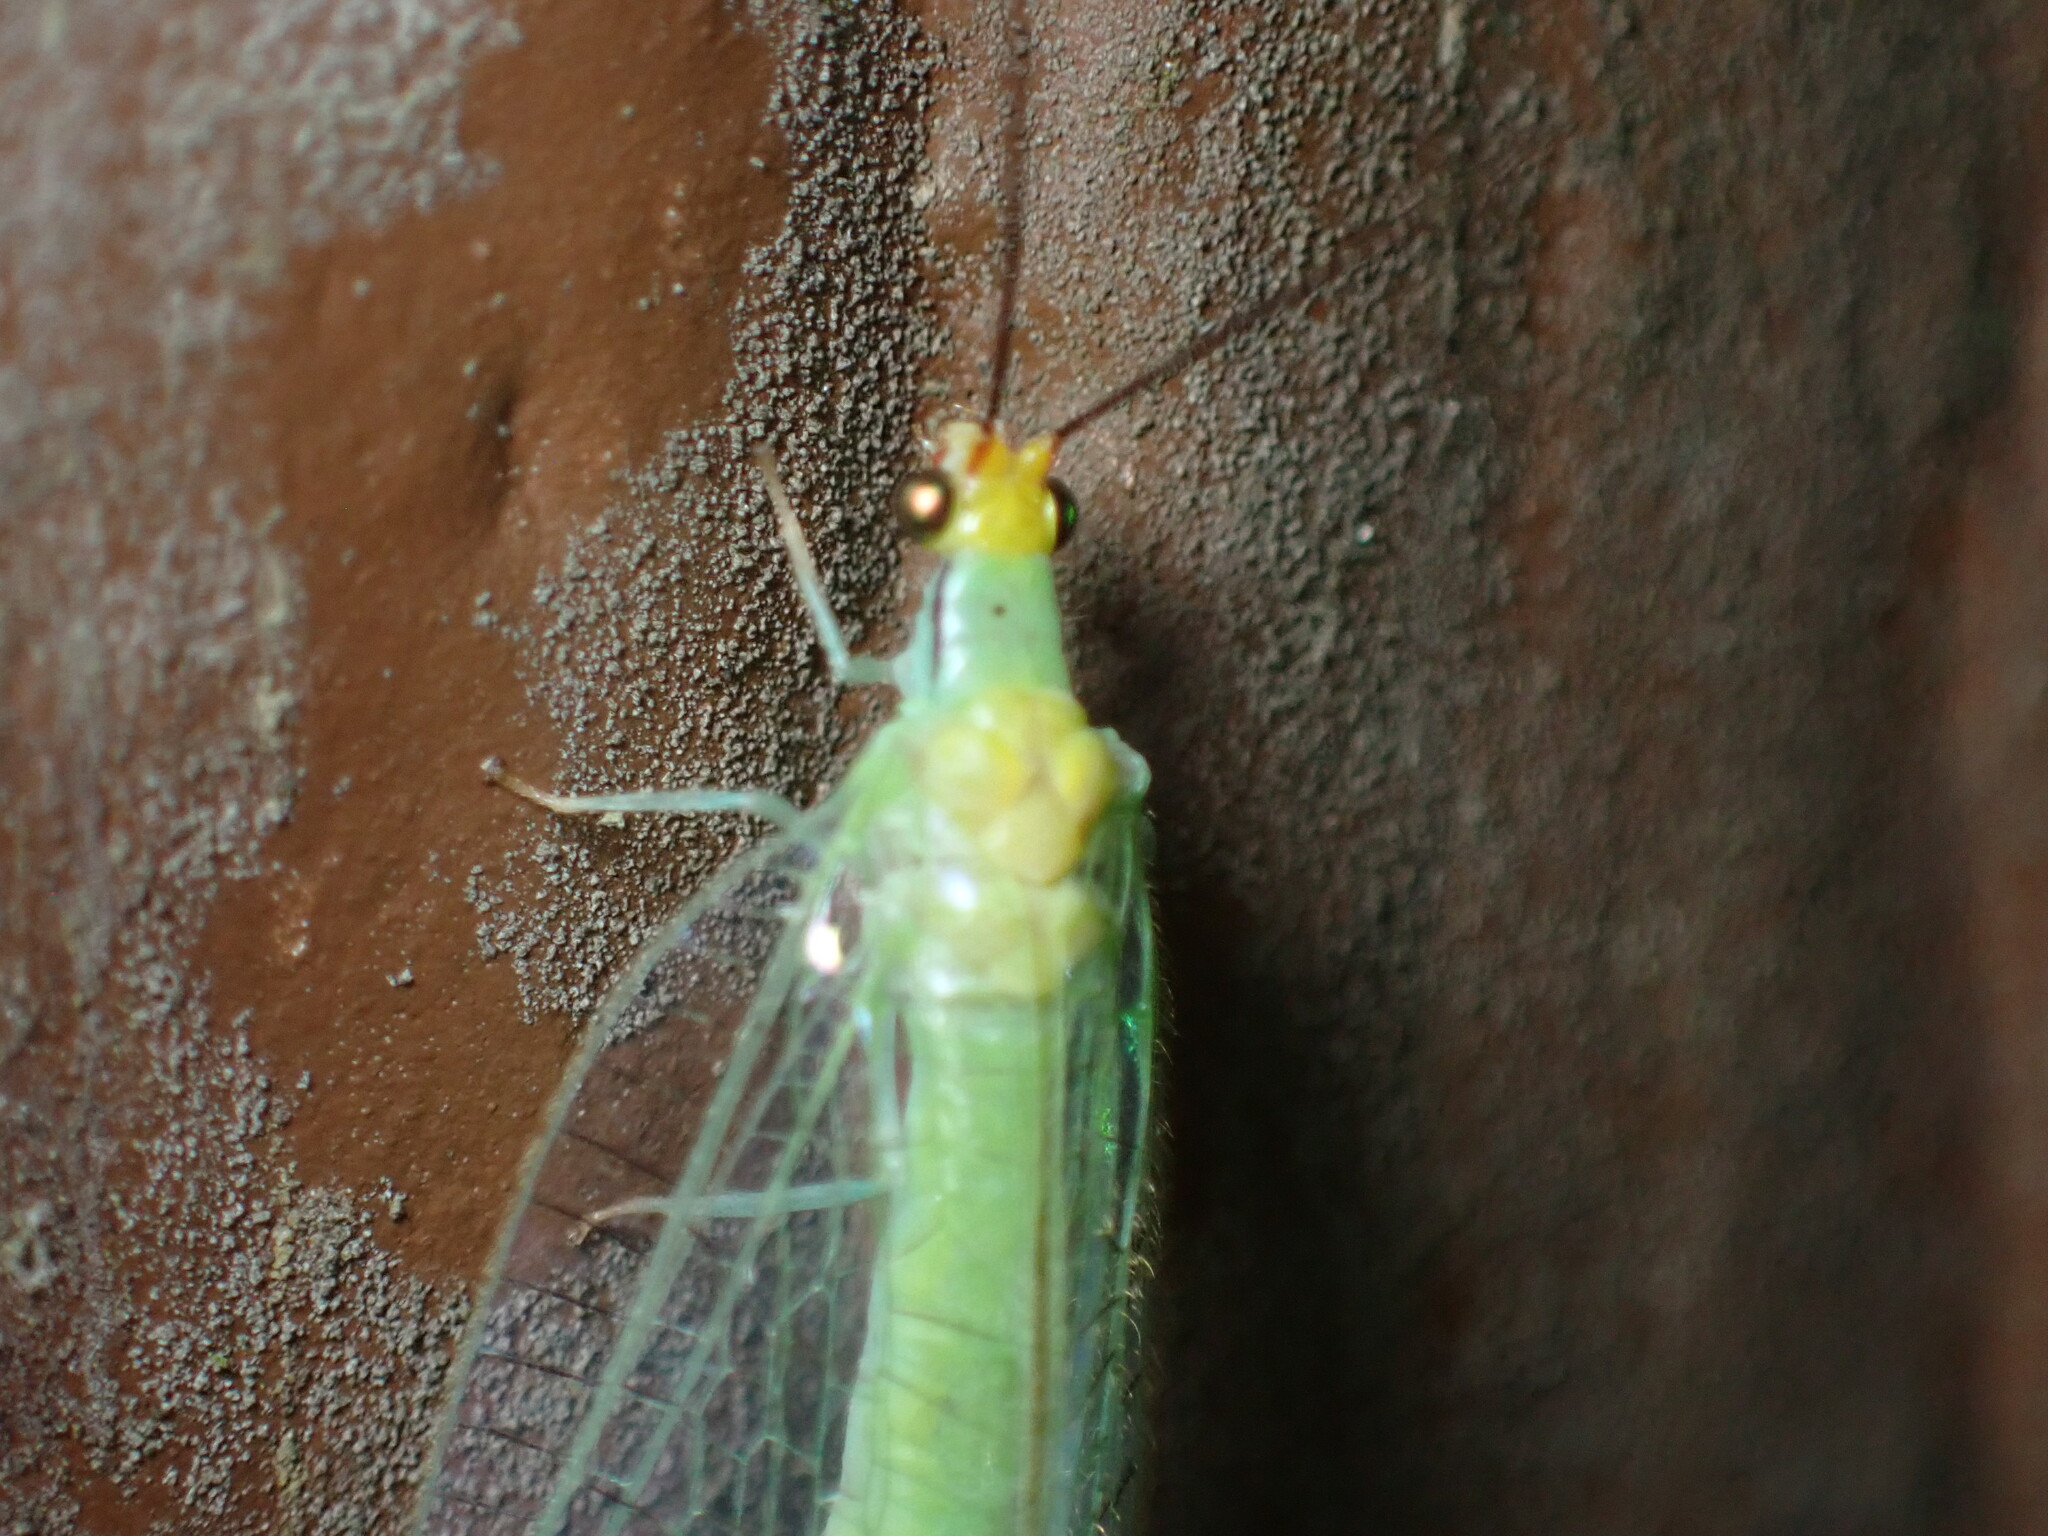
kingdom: Animalia
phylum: Arthropoda
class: Insecta
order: Neuroptera
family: Chrysopidae
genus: Leucochrysa
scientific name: Leucochrysa pavida
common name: Lichen-carrying green lacewing
